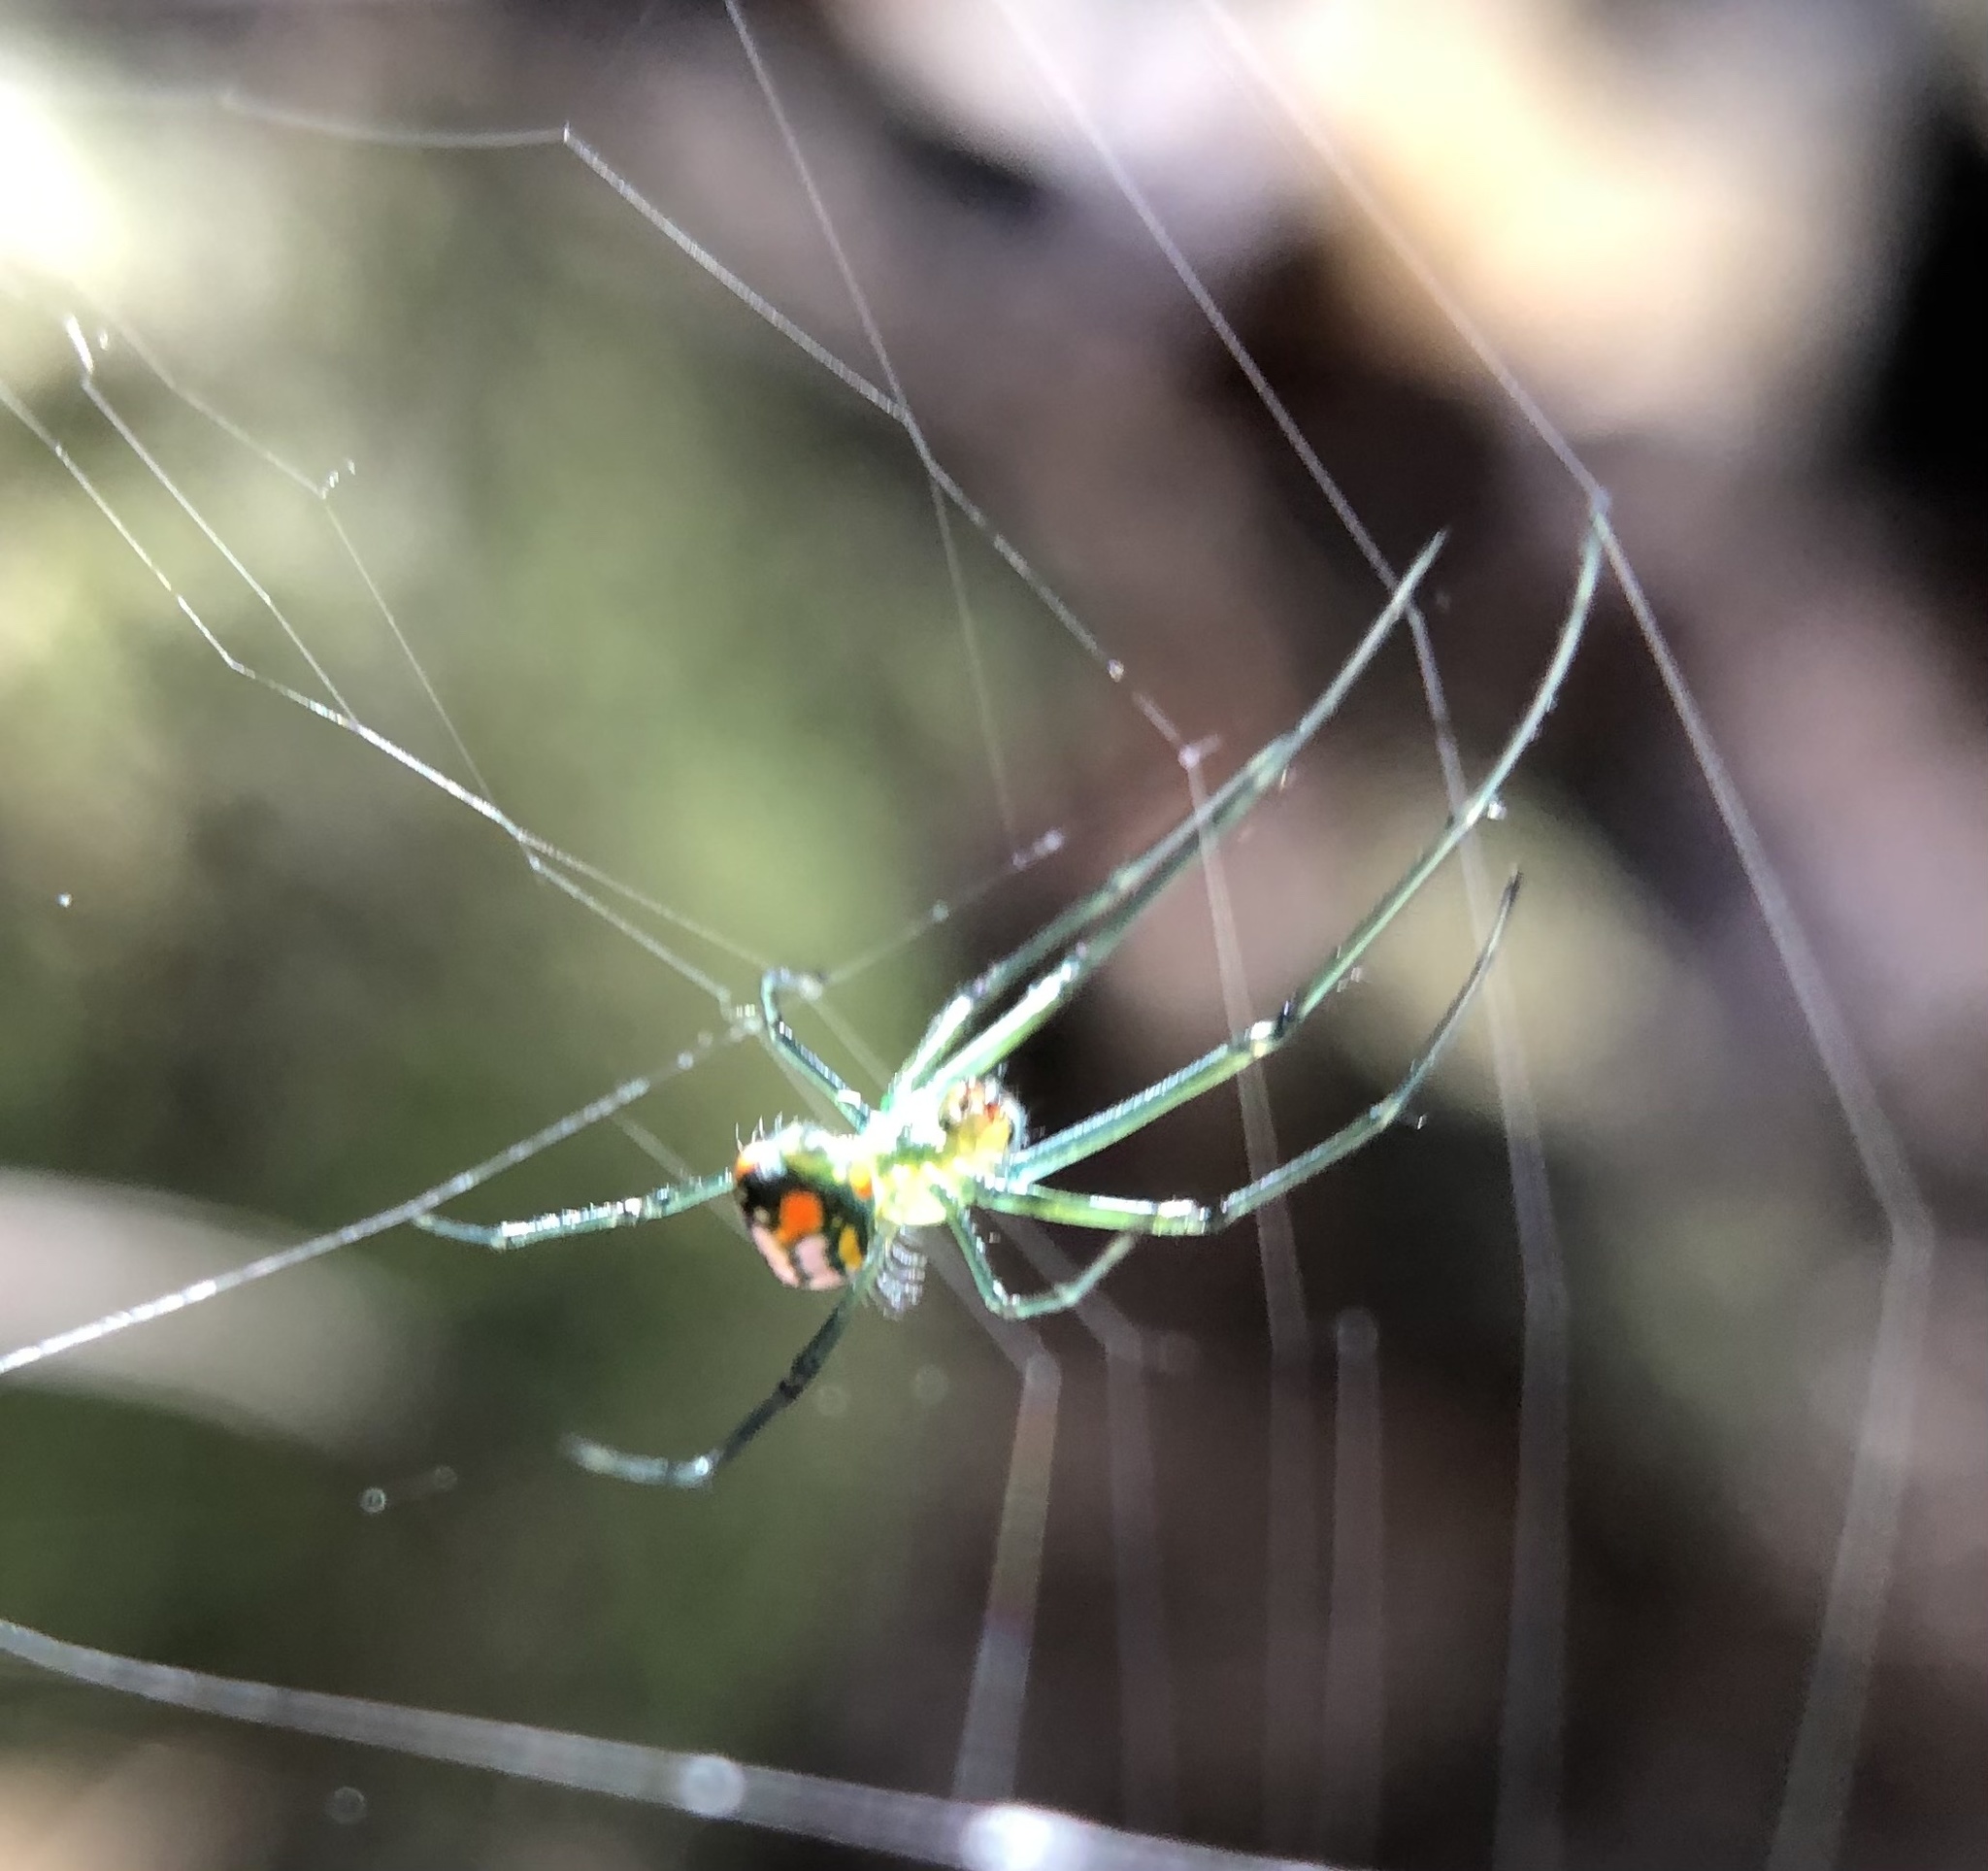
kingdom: Animalia
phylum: Arthropoda
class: Arachnida
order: Araneae
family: Tetragnathidae
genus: Leucauge
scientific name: Leucauge argyrobapta
